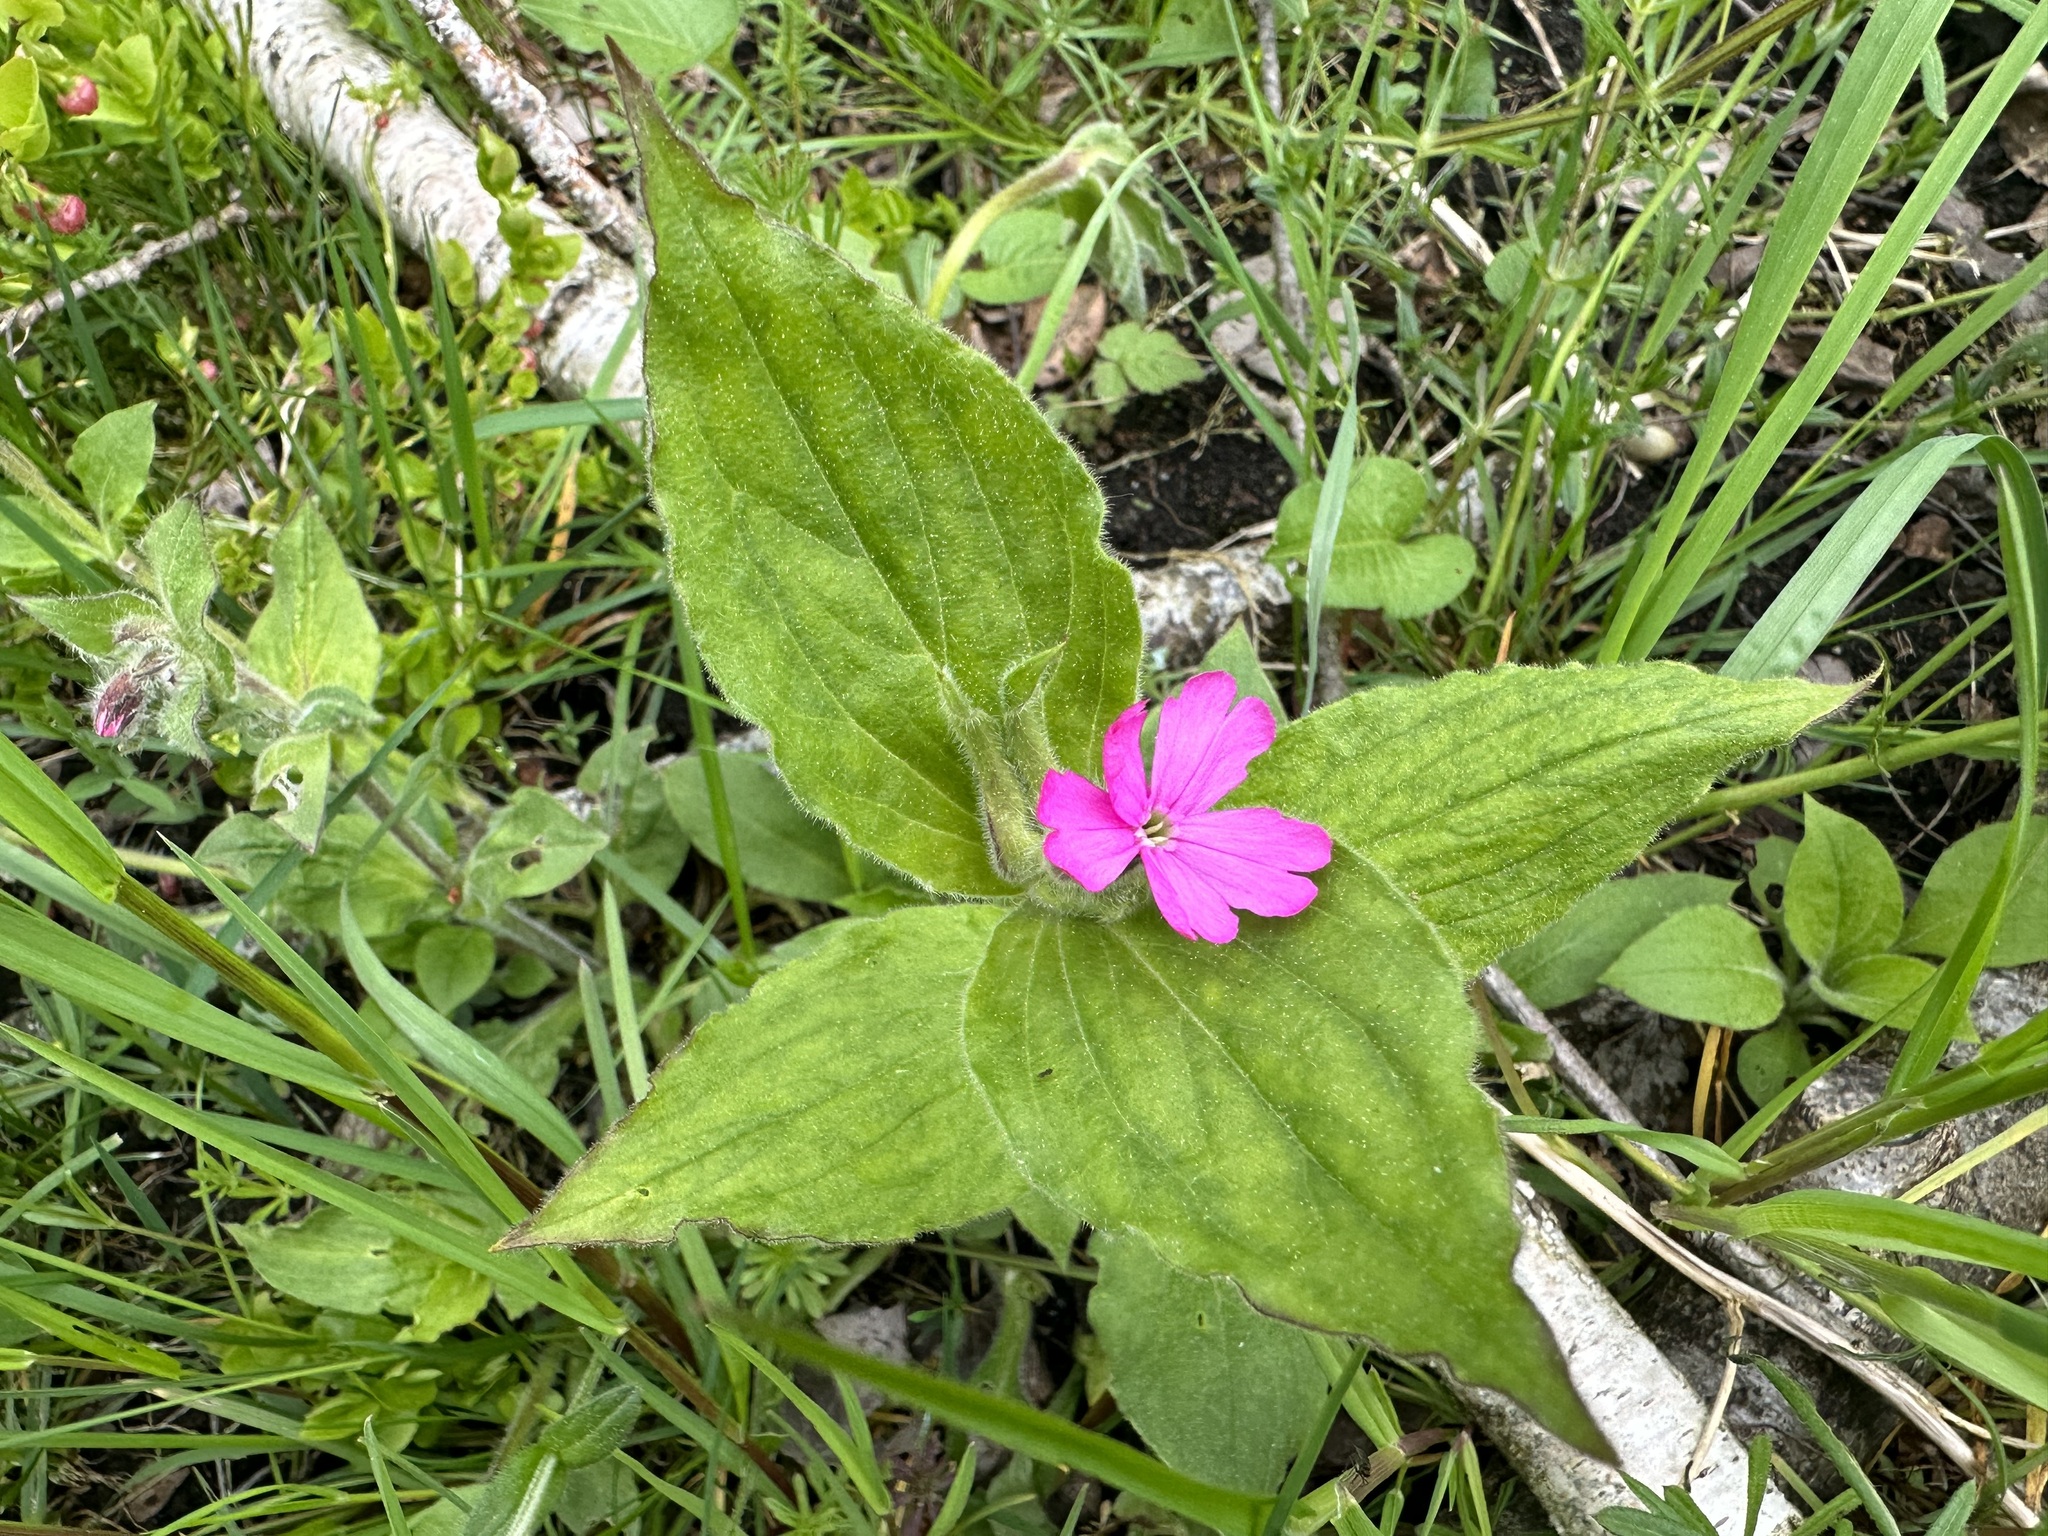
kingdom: Plantae
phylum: Tracheophyta
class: Magnoliopsida
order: Caryophyllales
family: Caryophyllaceae
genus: Silene
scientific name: Silene dioica
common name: Red campion
